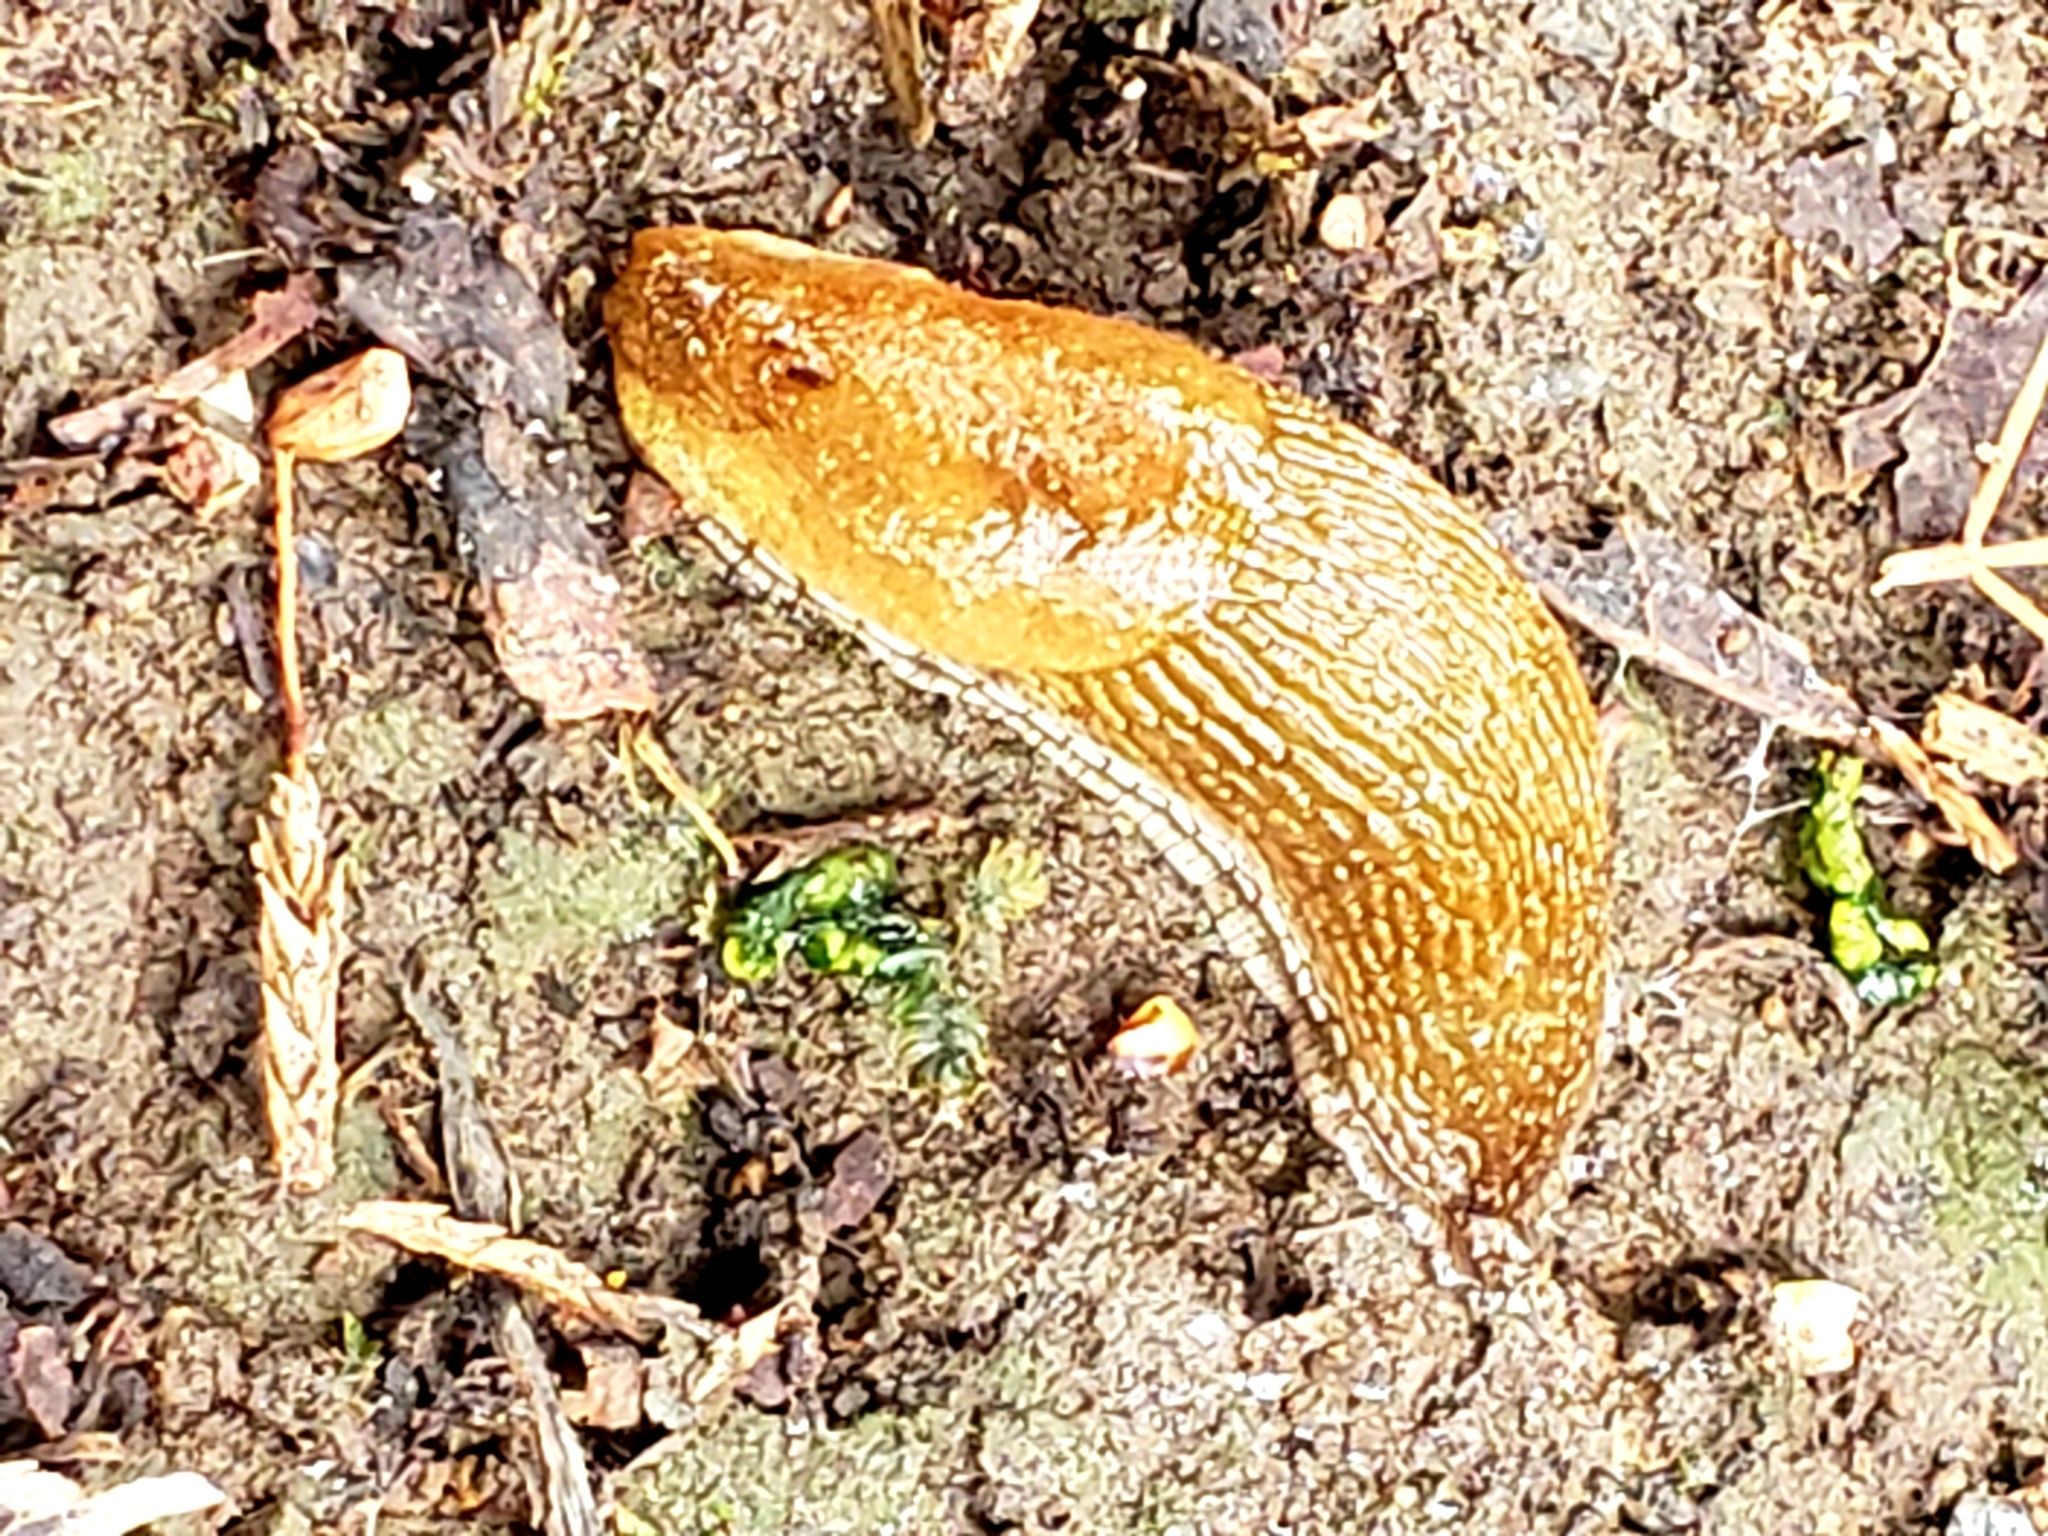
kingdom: Animalia
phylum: Mollusca
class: Gastropoda
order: Stylommatophora
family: Arionidae
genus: Arion
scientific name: Arion subfuscus
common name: Dusky arion
